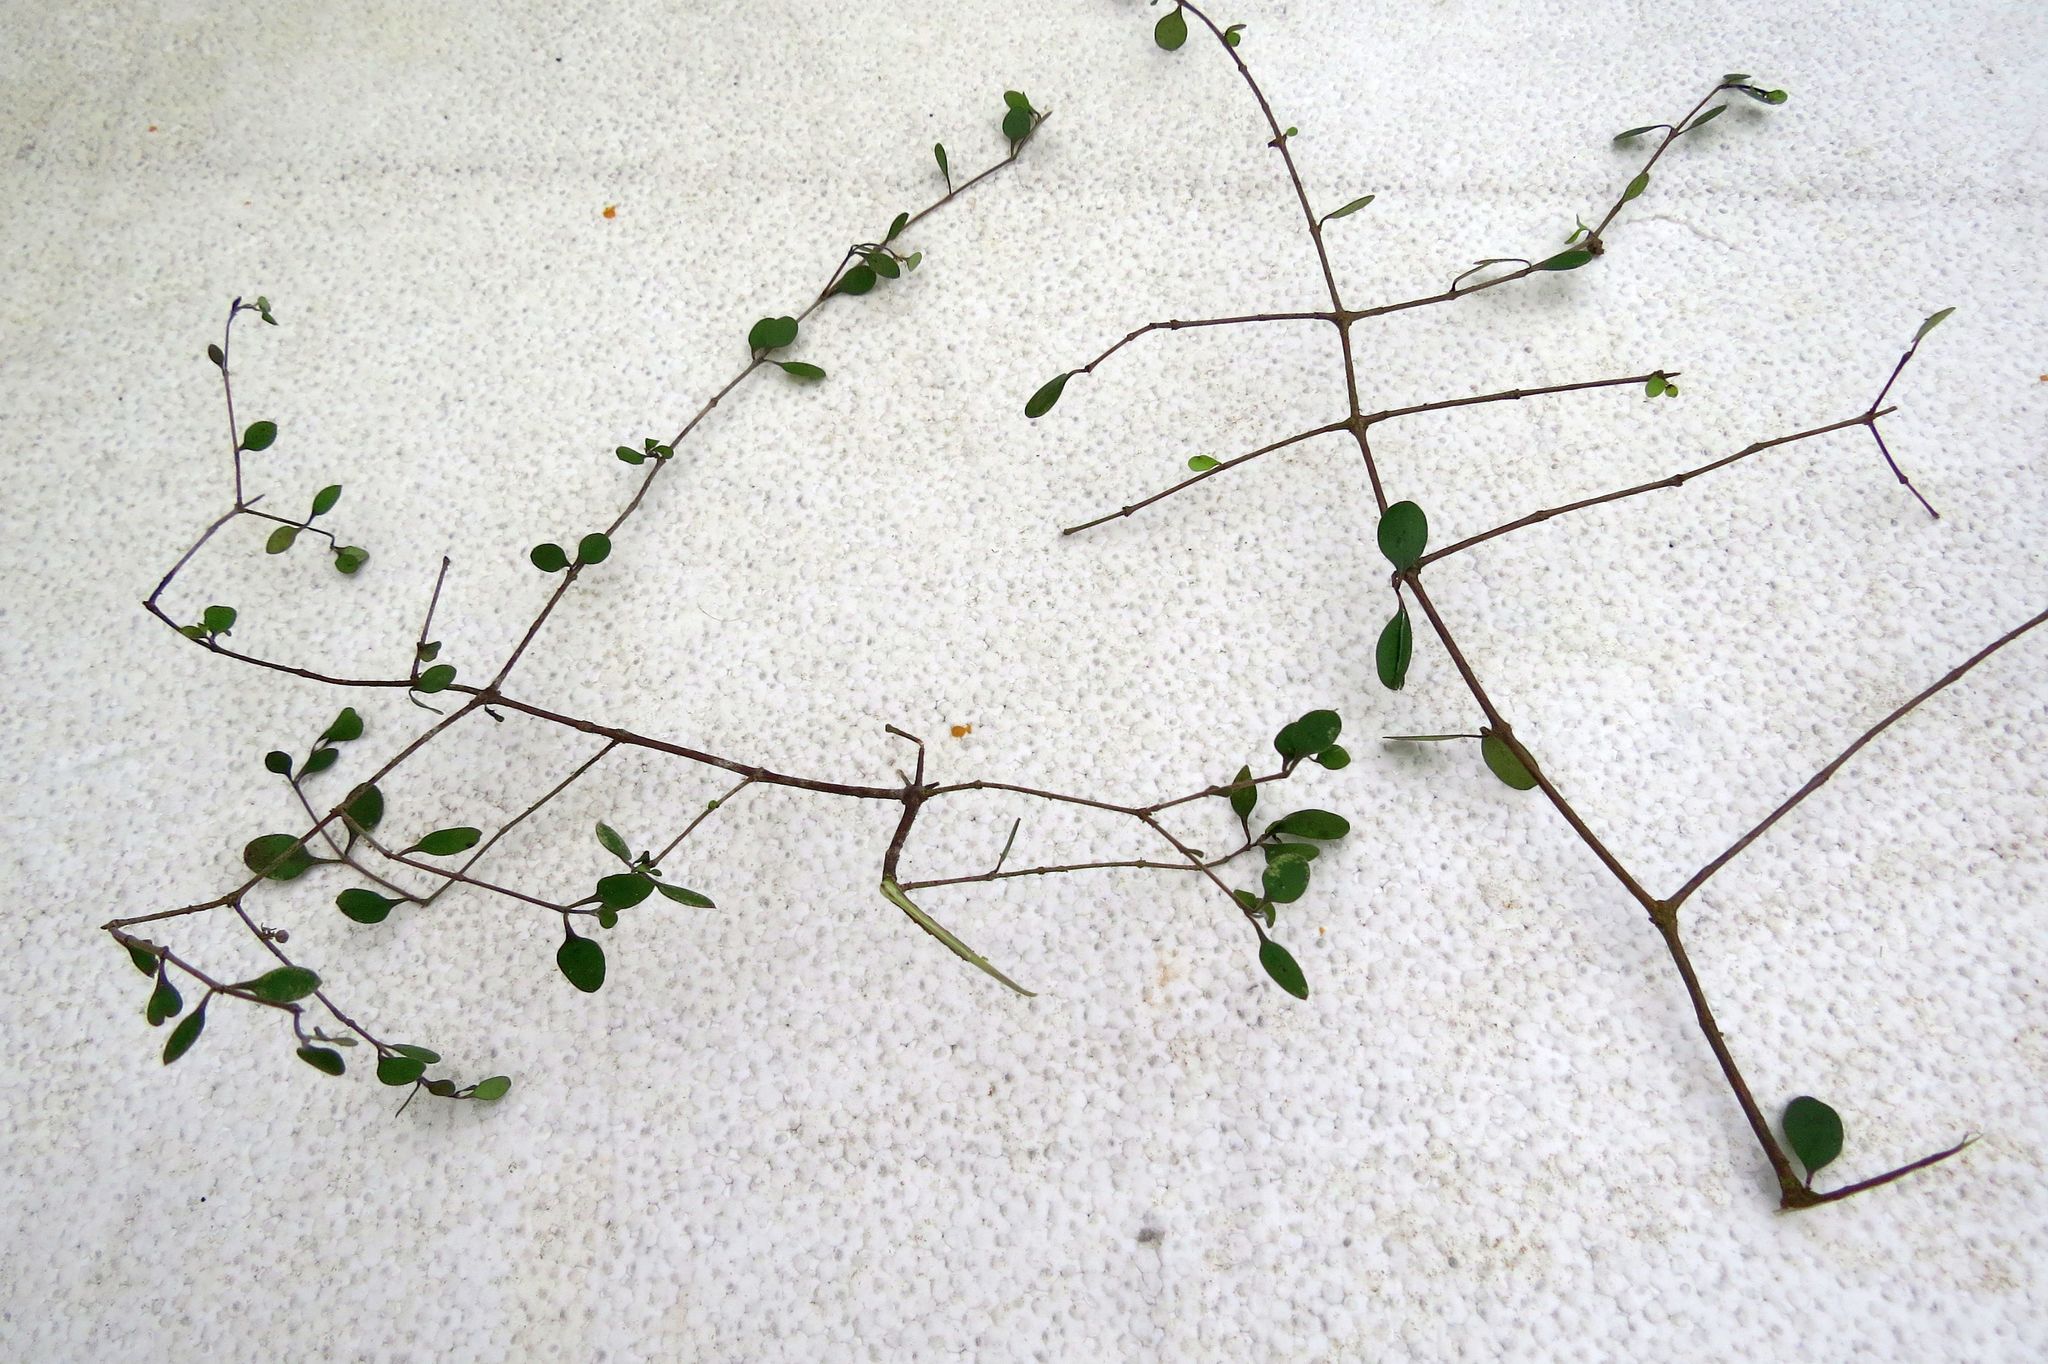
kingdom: Plantae
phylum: Tracheophyta
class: Magnoliopsida
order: Gentianales
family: Rubiaceae
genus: Coprosma
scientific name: Coprosma crassifolia
